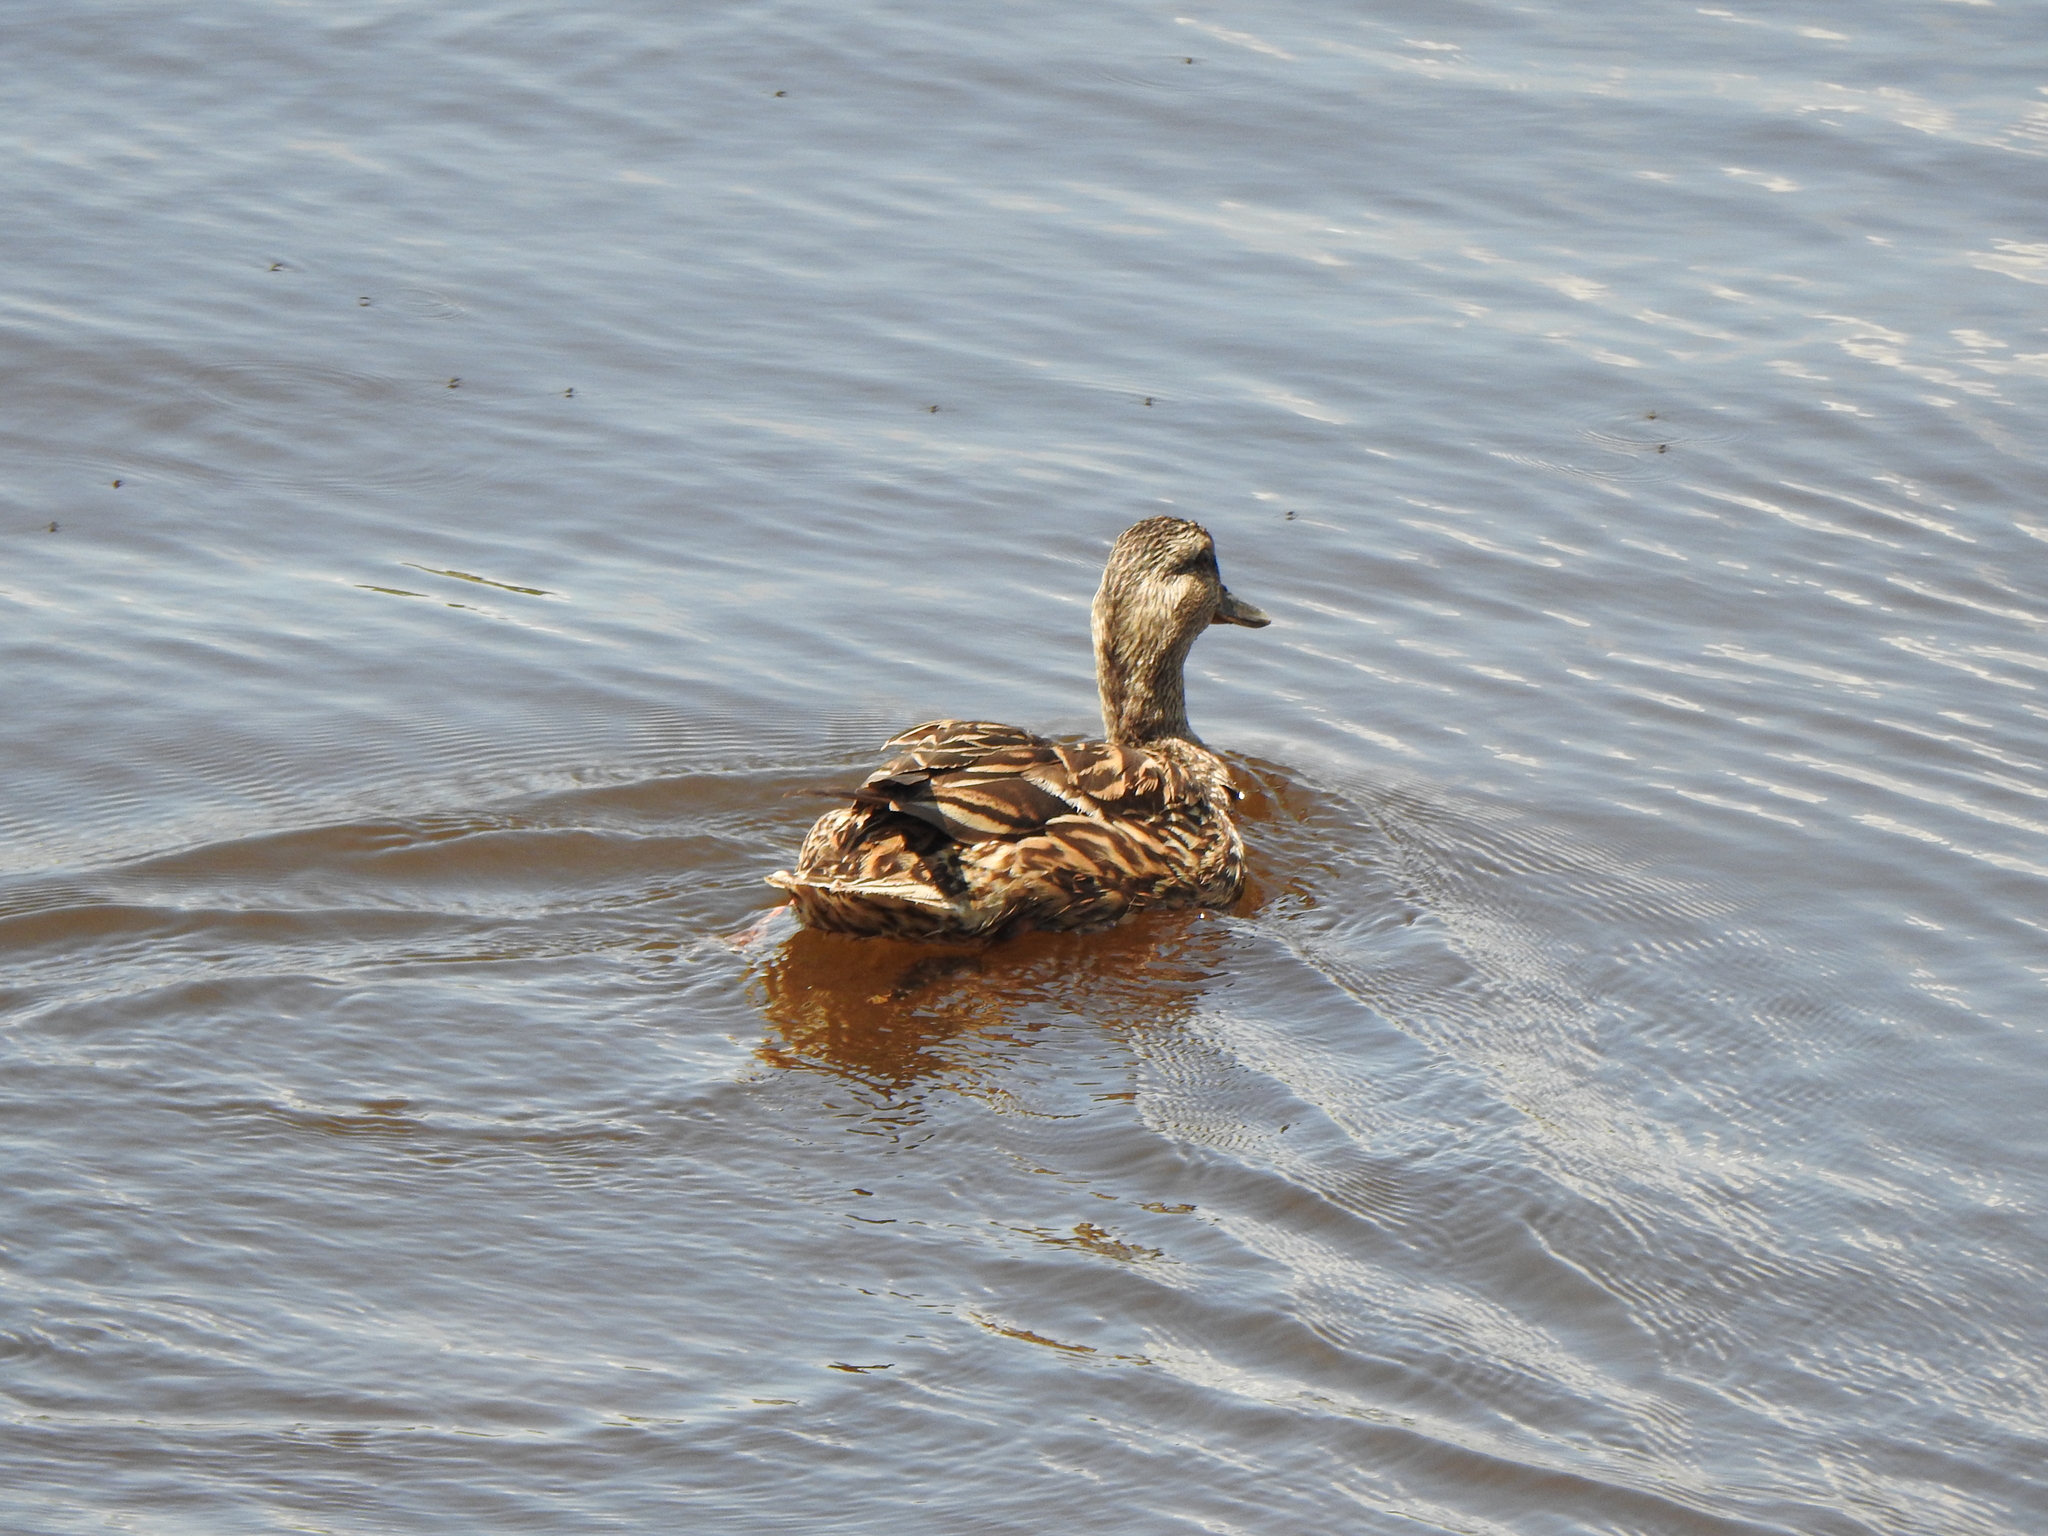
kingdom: Animalia
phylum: Chordata
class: Aves
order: Anseriformes
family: Anatidae
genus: Anas
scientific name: Anas platyrhynchos
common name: Mallard
